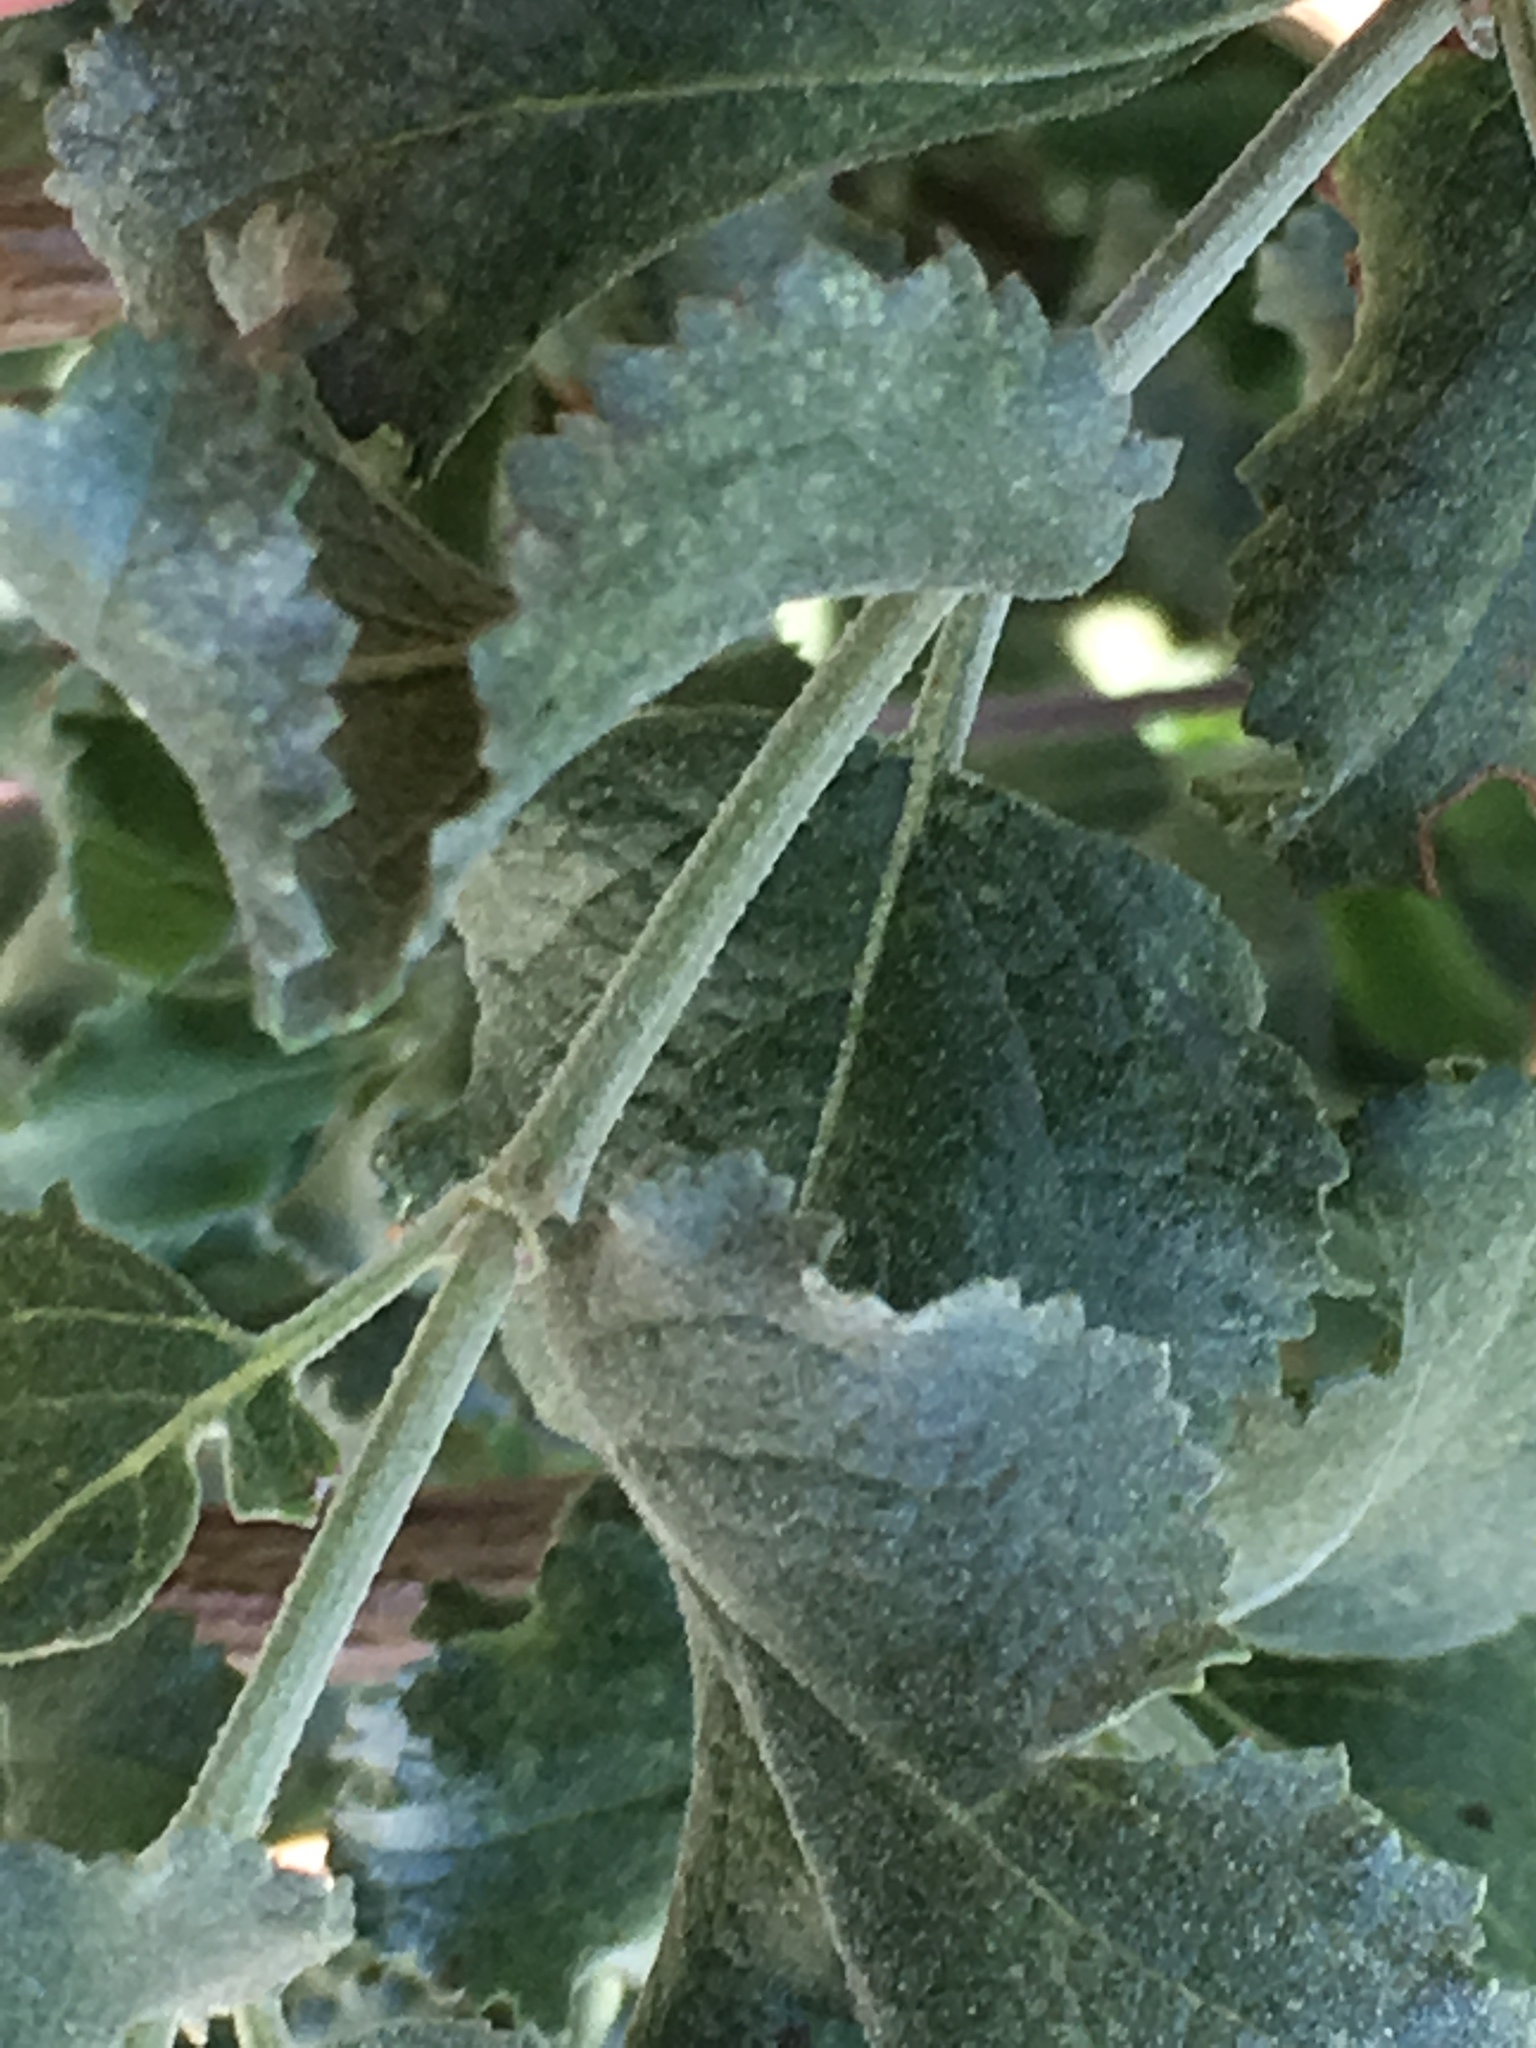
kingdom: Plantae
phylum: Tracheophyta
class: Magnoliopsida
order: Lamiales
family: Lamiaceae
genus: Condea
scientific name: Condea emoryi
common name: Chia
